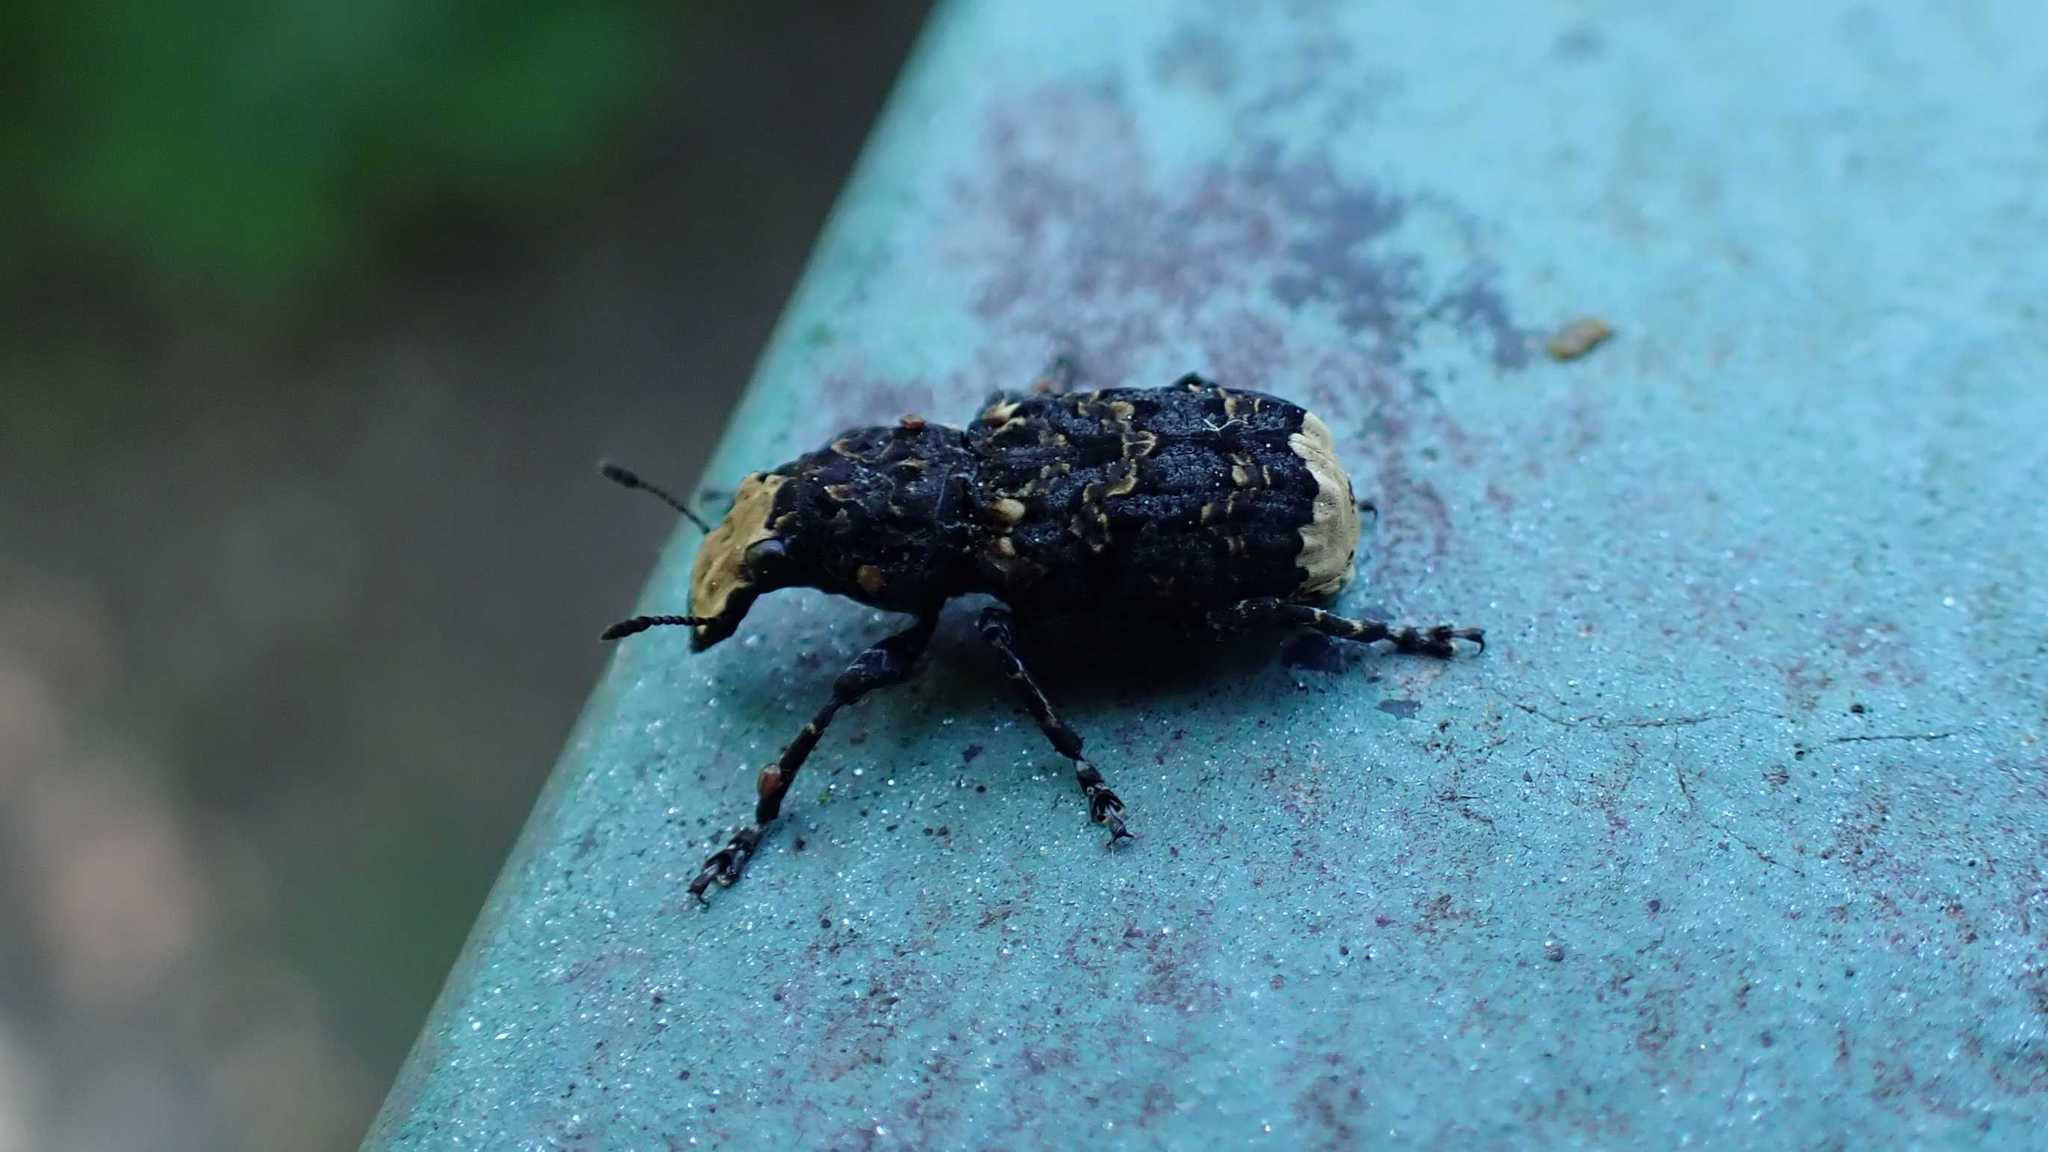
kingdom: Animalia
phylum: Arthropoda
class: Insecta
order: Coleoptera
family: Anthribidae
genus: Platyrhinus
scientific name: Platyrhinus resinosus
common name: Cramp-ball fungus weevil
